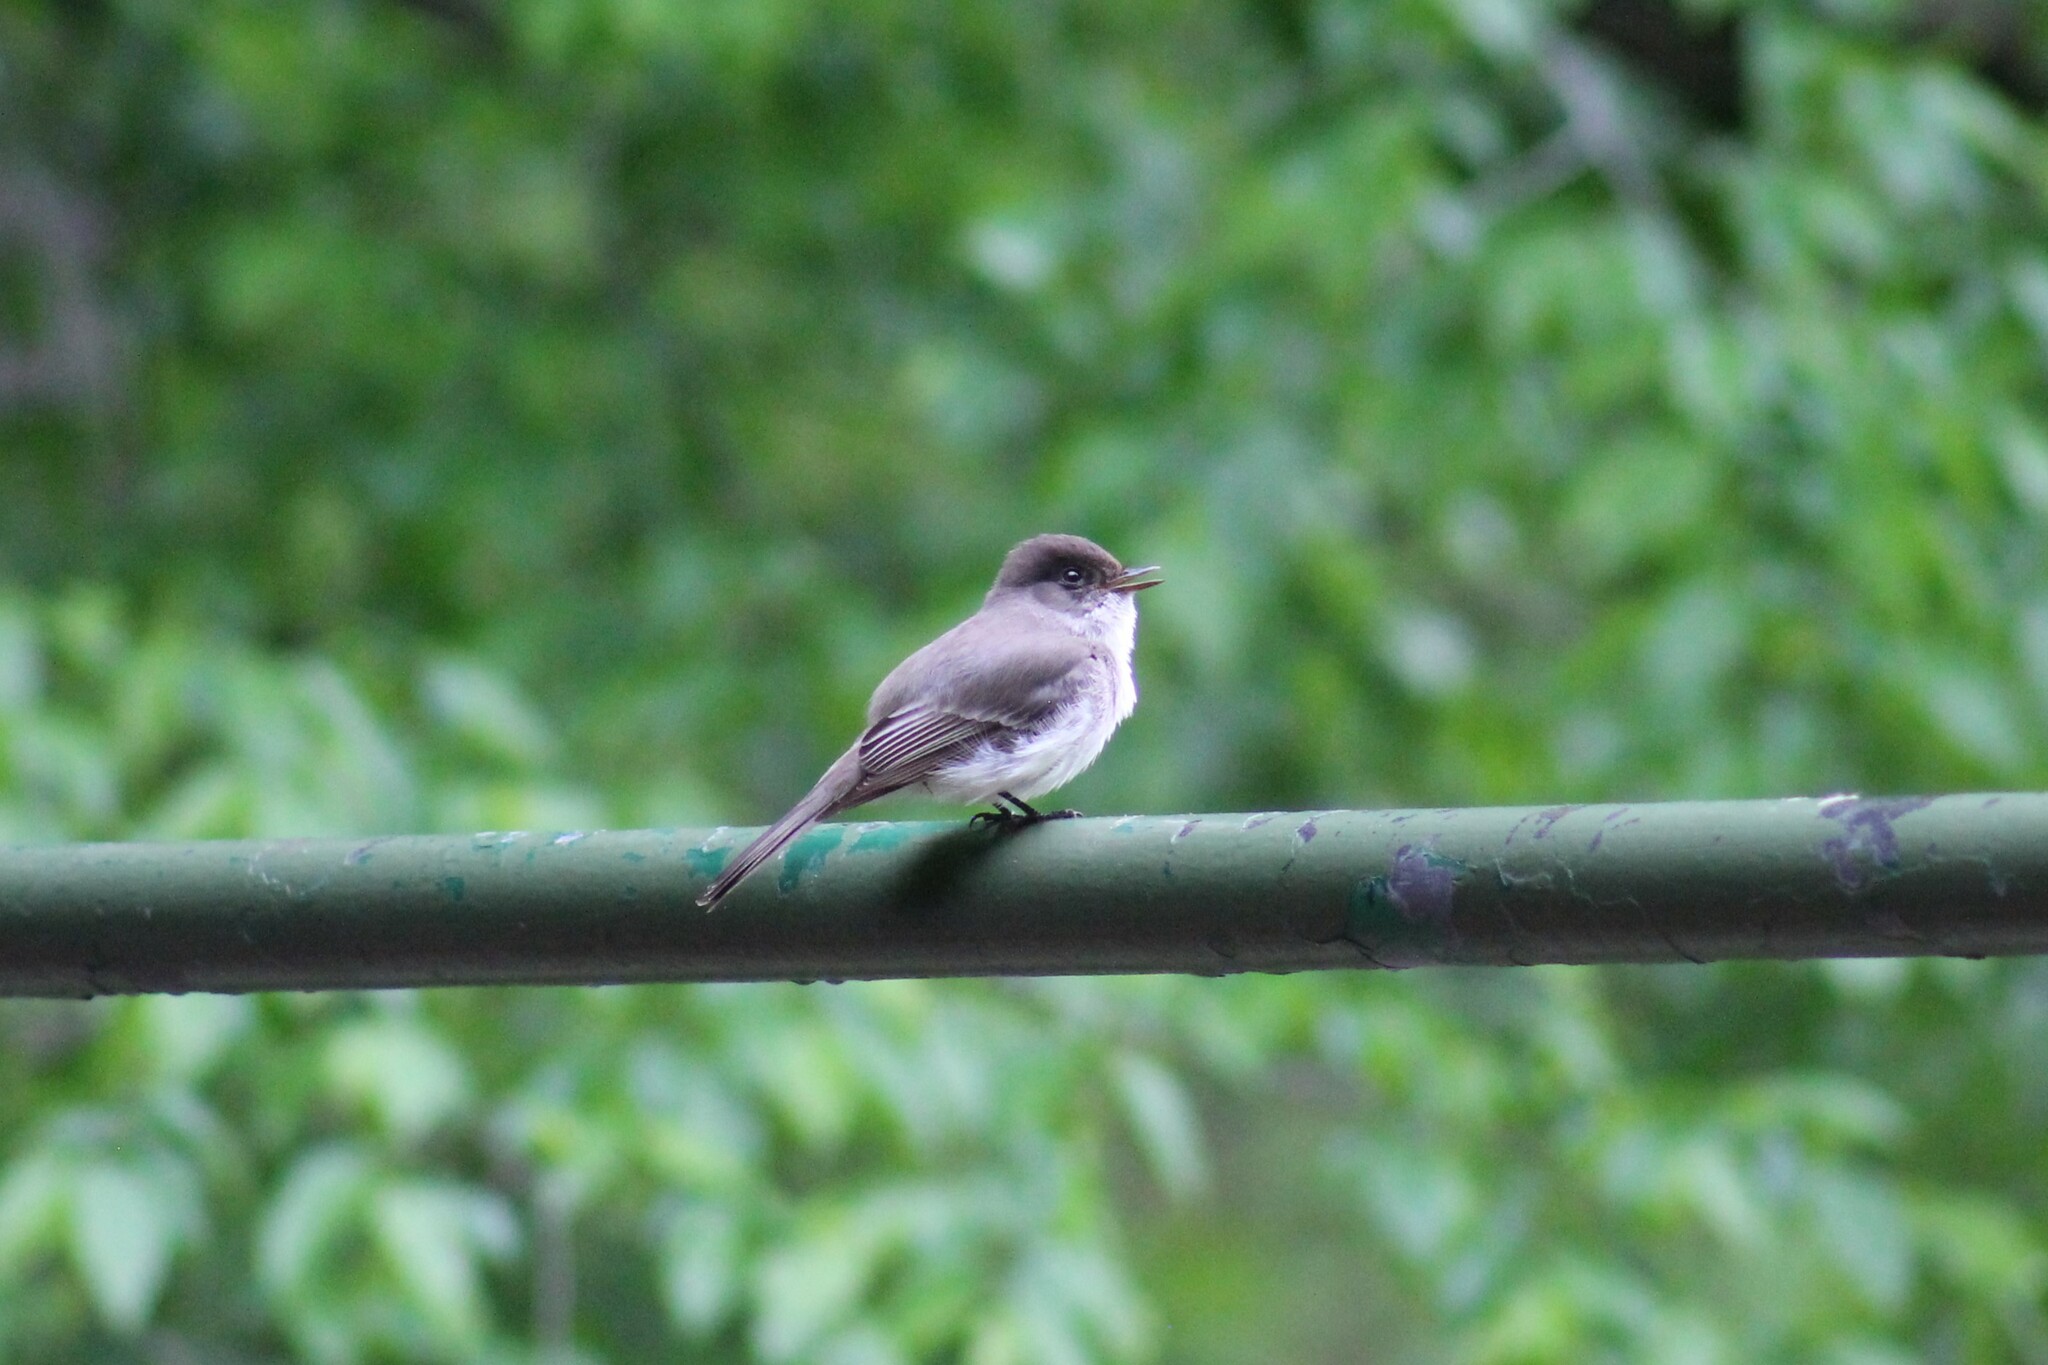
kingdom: Animalia
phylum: Chordata
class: Aves
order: Passeriformes
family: Tyrannidae
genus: Sayornis
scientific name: Sayornis phoebe
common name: Eastern phoebe
